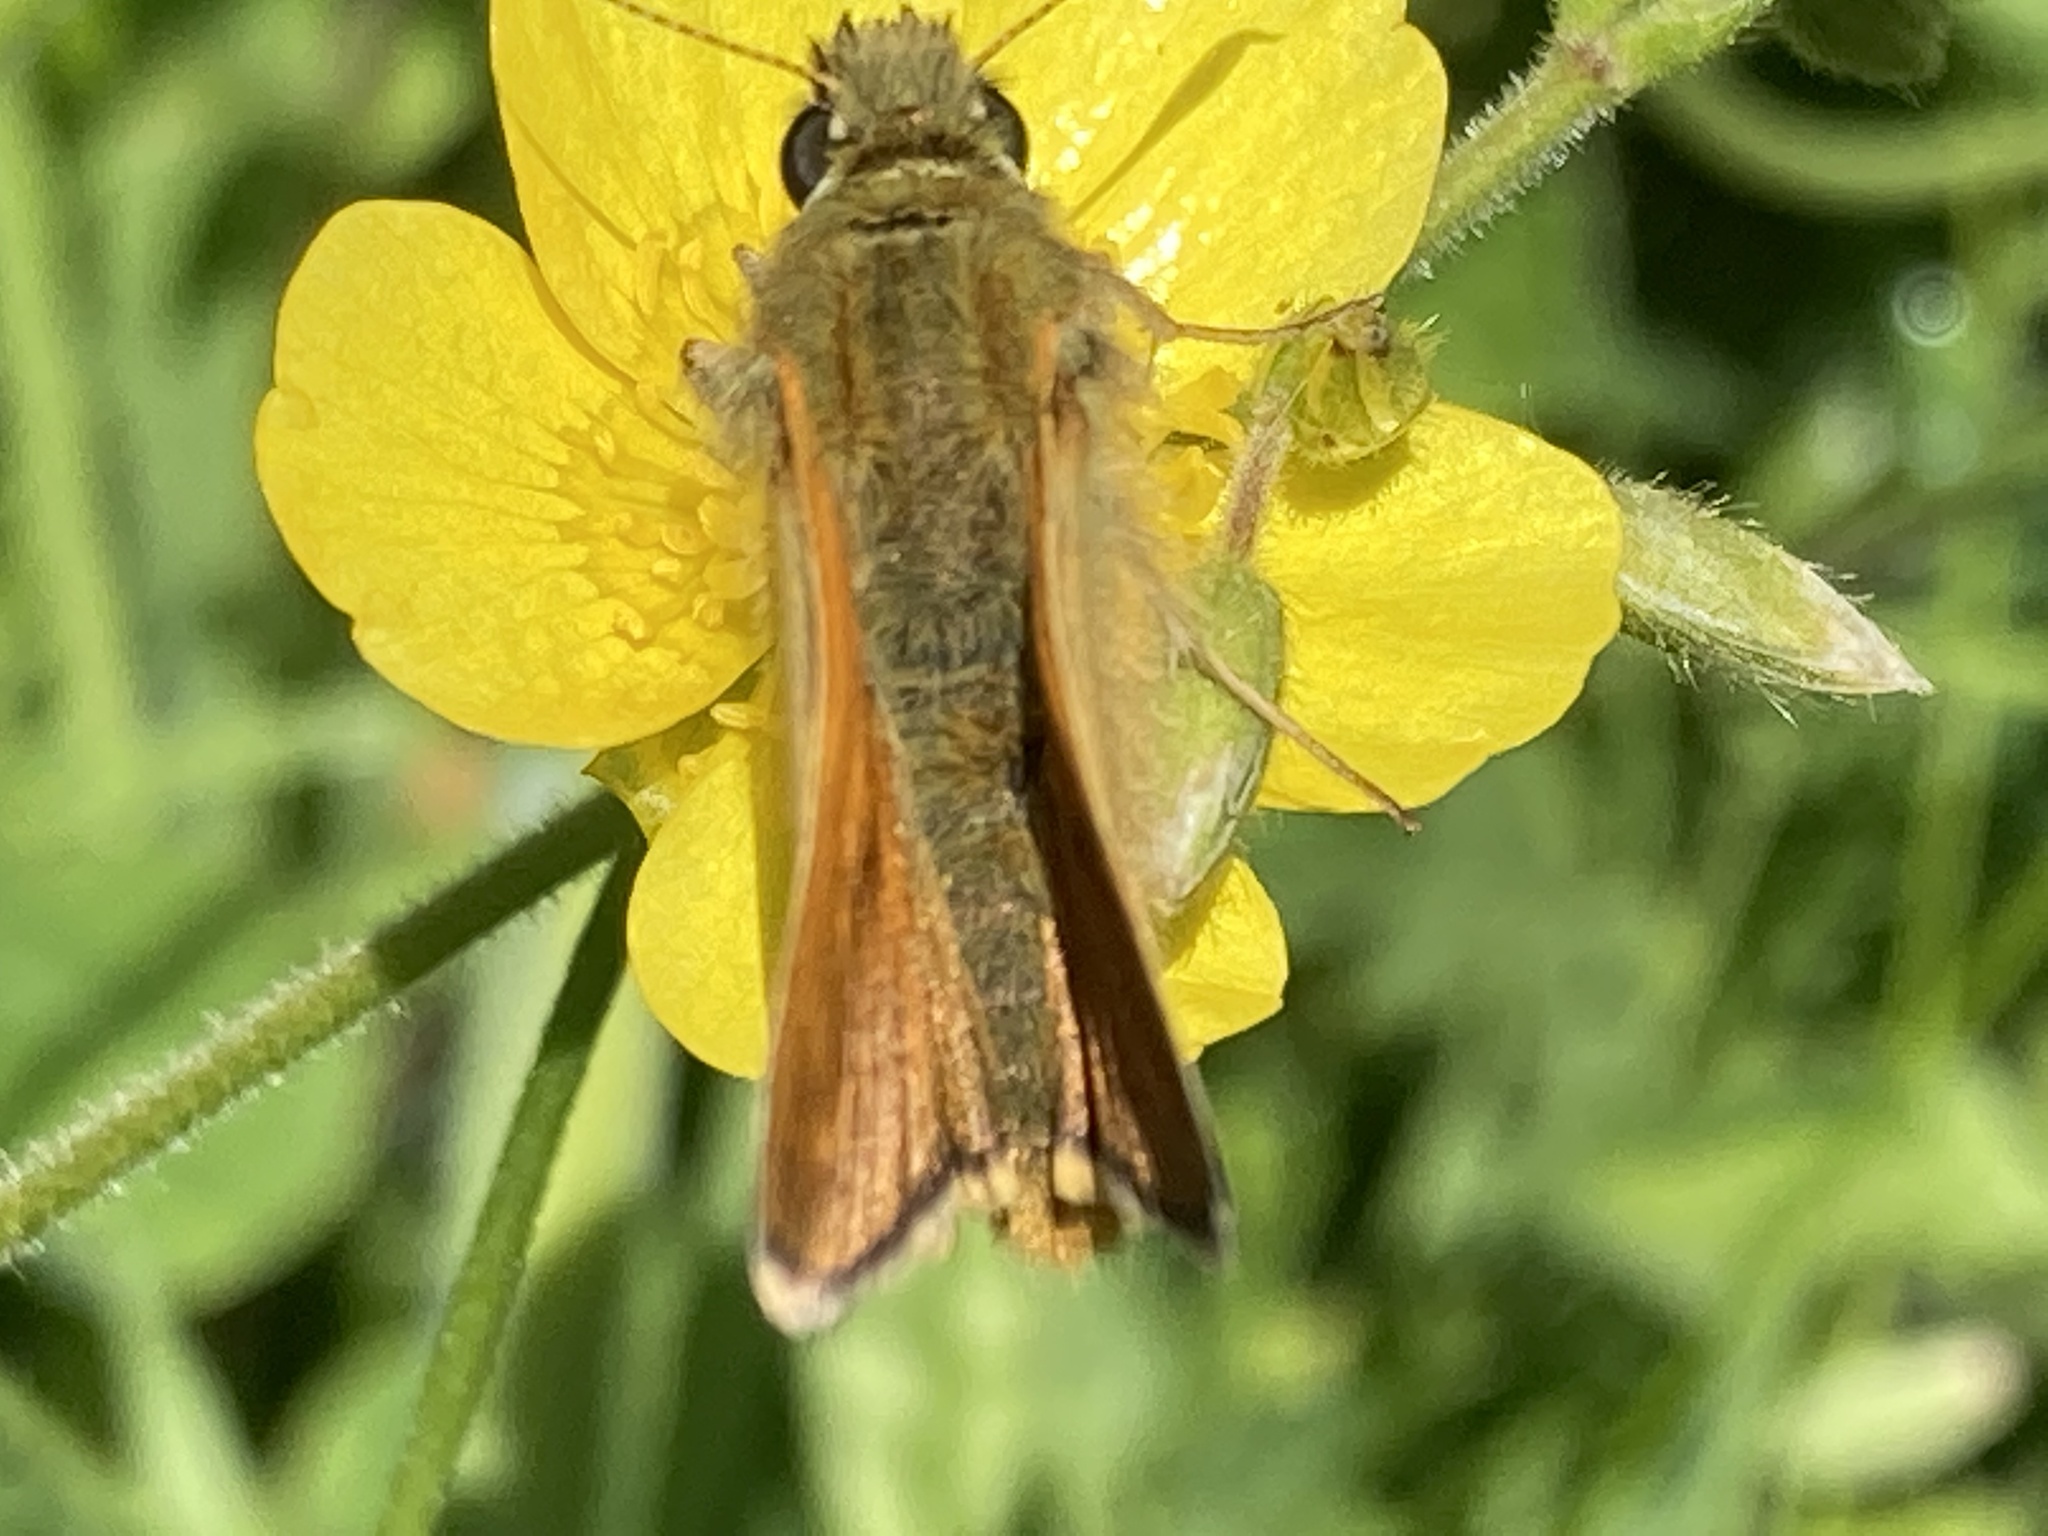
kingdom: Animalia
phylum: Arthropoda
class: Insecta
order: Lepidoptera
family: Hesperiidae
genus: Ochlodes
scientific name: Ochlodes venata
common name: Large skipper
